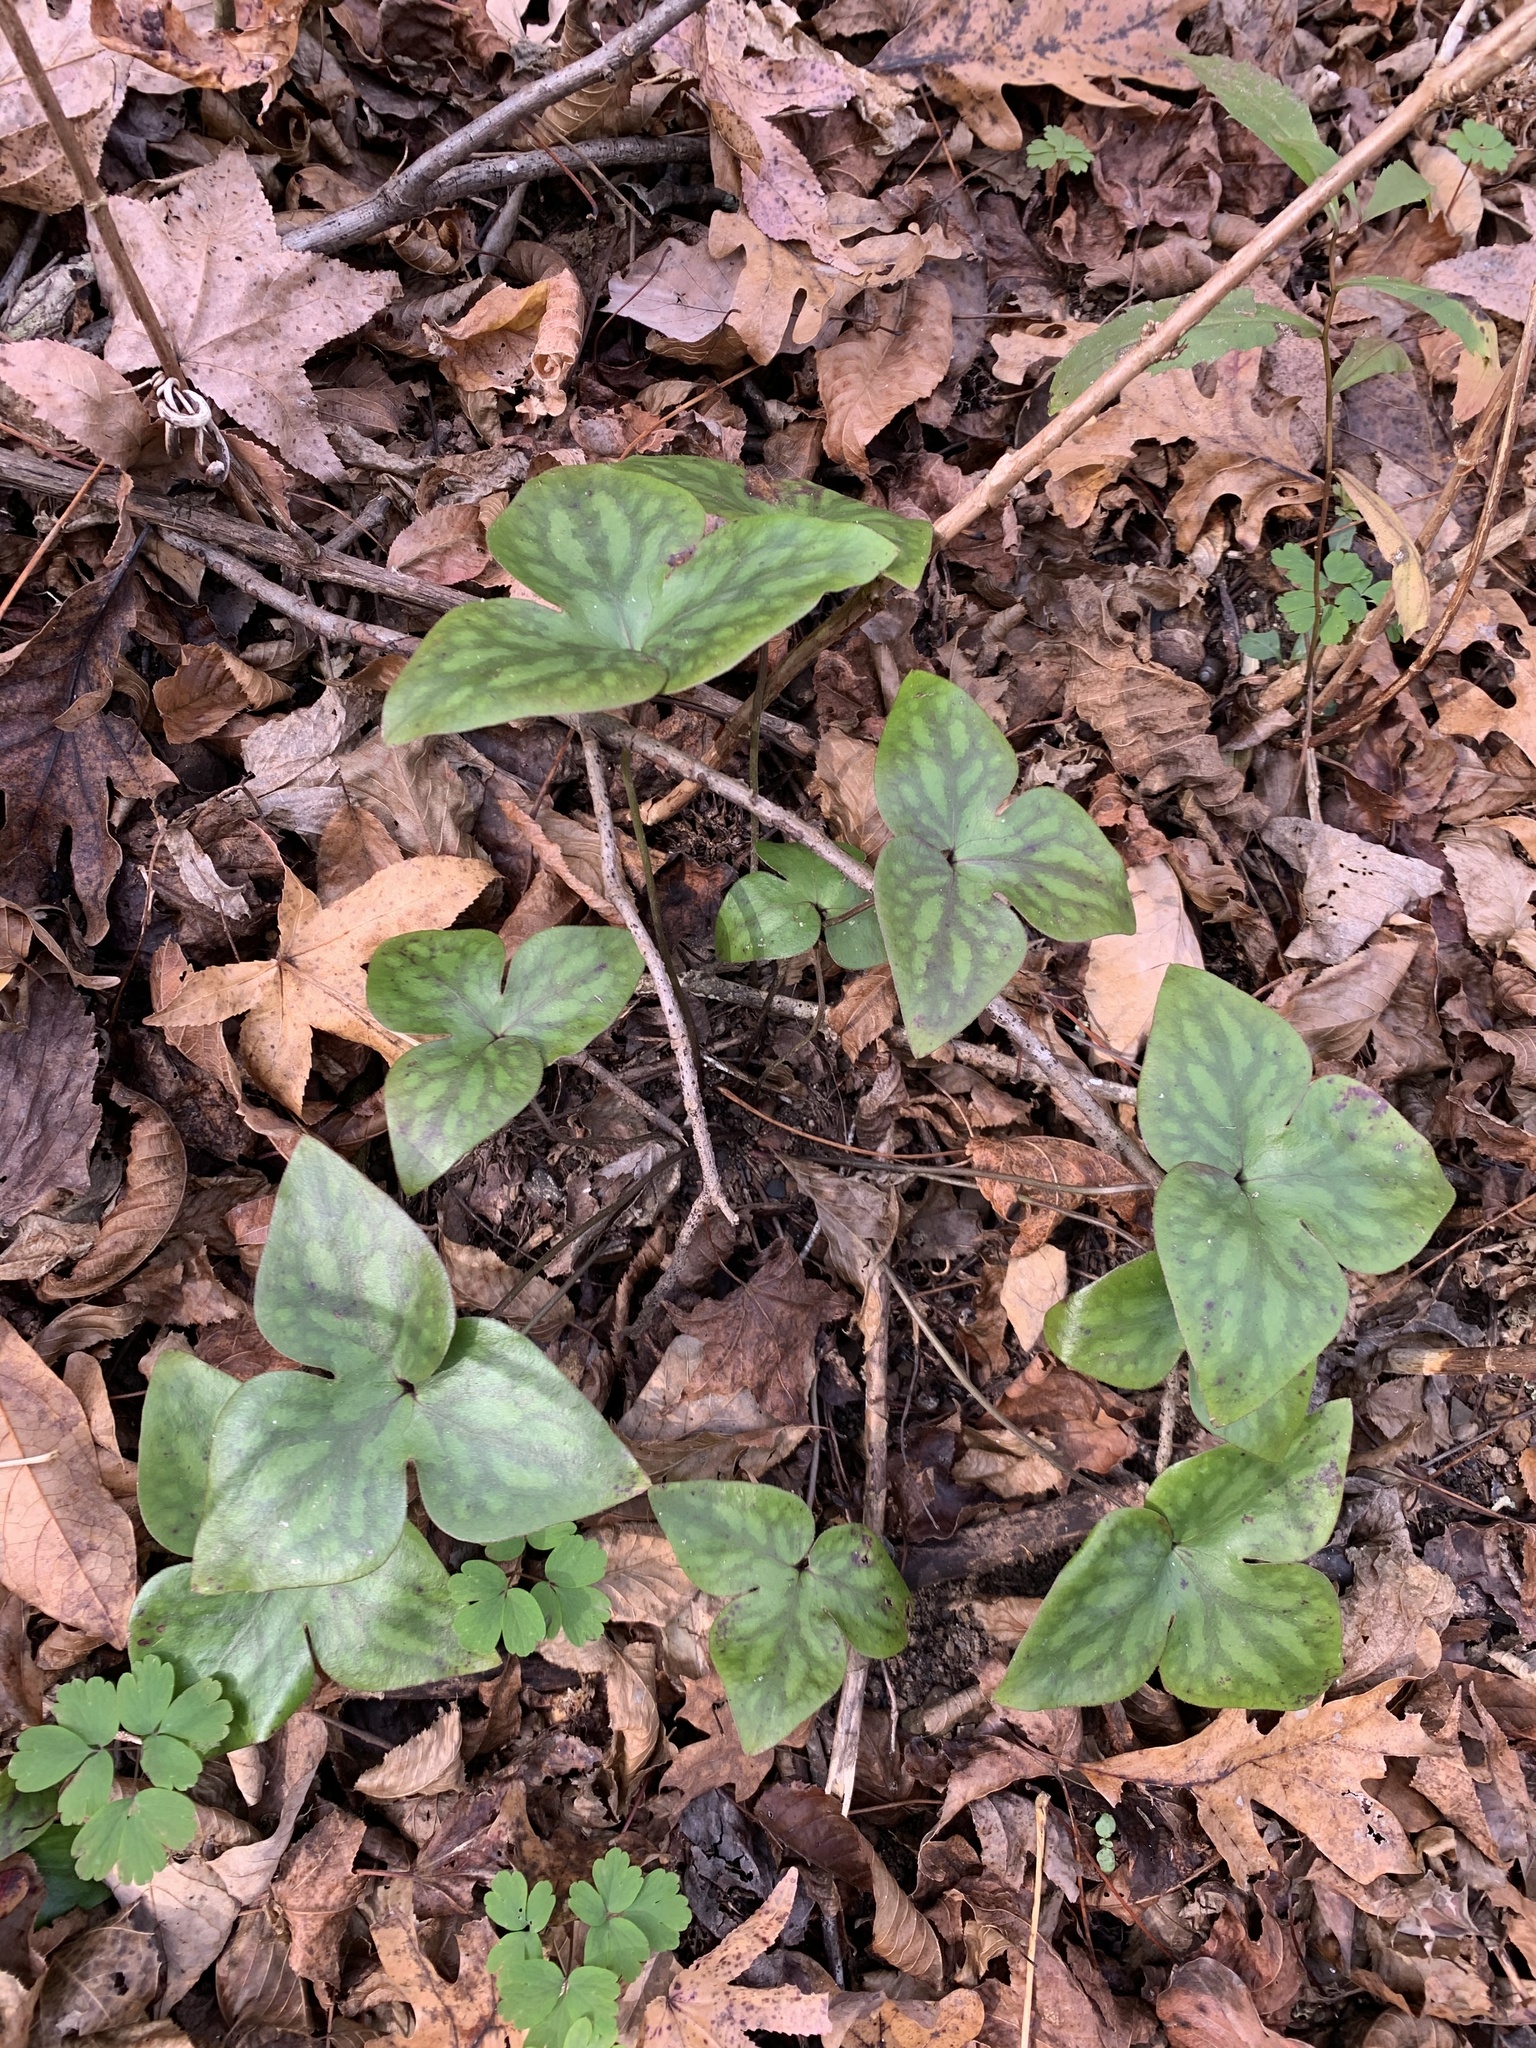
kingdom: Plantae
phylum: Tracheophyta
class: Magnoliopsida
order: Ranunculales
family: Ranunculaceae
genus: Hepatica
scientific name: Hepatica acutiloba
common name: Sharp-lobed hepatica
